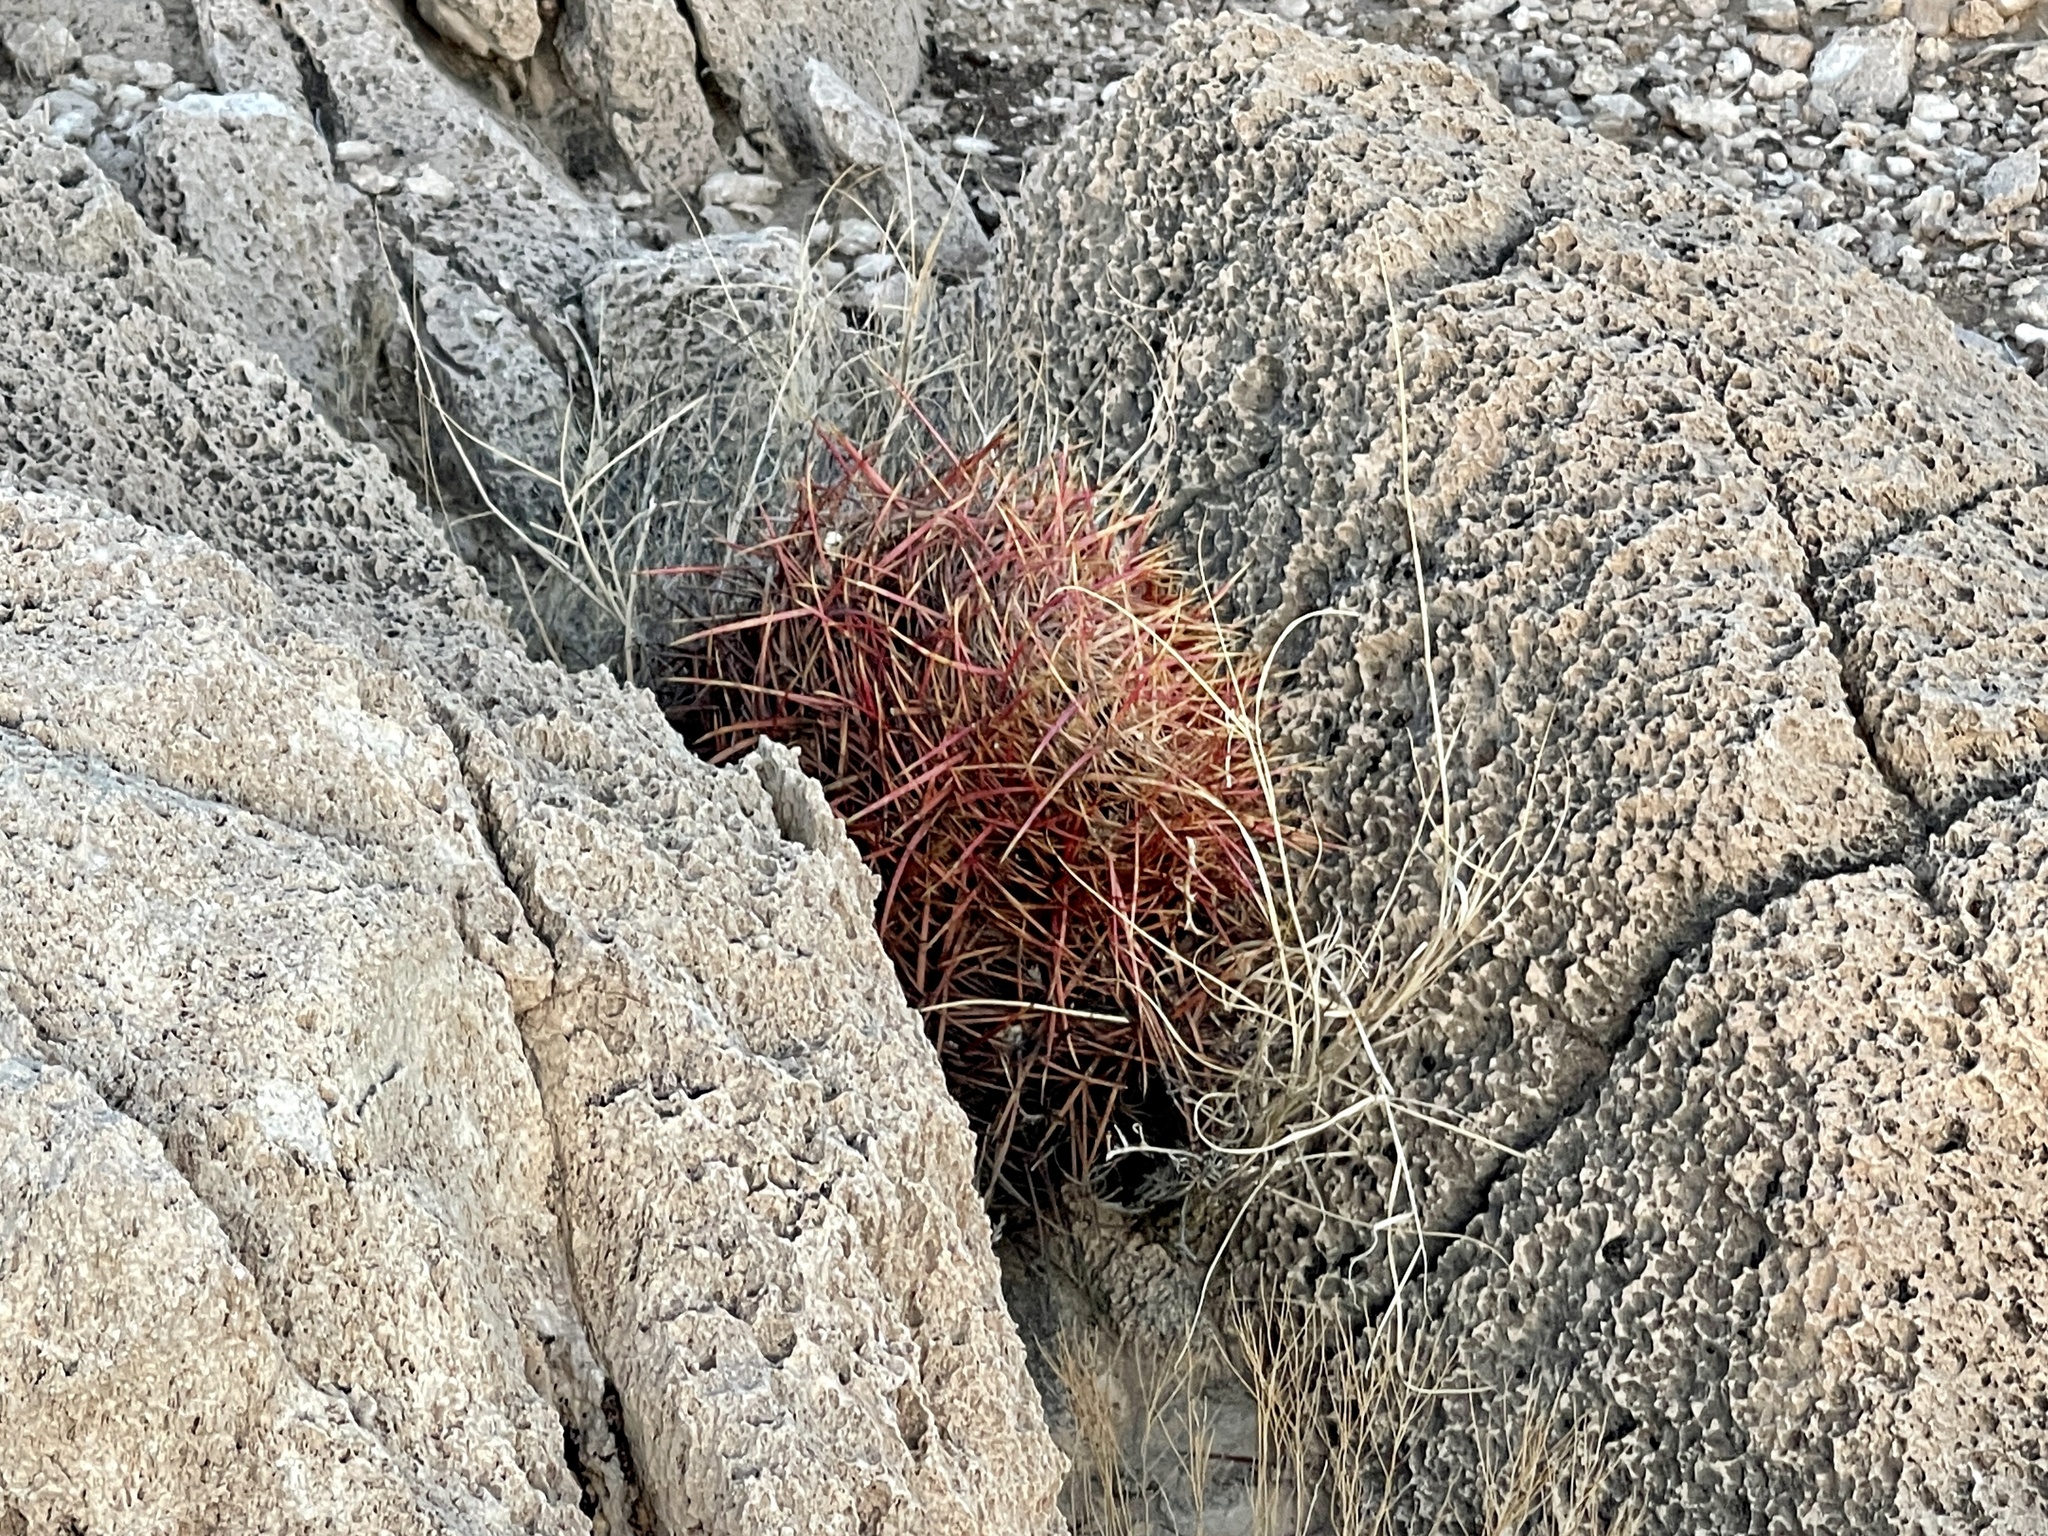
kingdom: Plantae
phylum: Tracheophyta
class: Magnoliopsida
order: Caryophyllales
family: Cactaceae
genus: Ferocactus
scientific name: Ferocactus cylindraceus
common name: California barrel cactus
